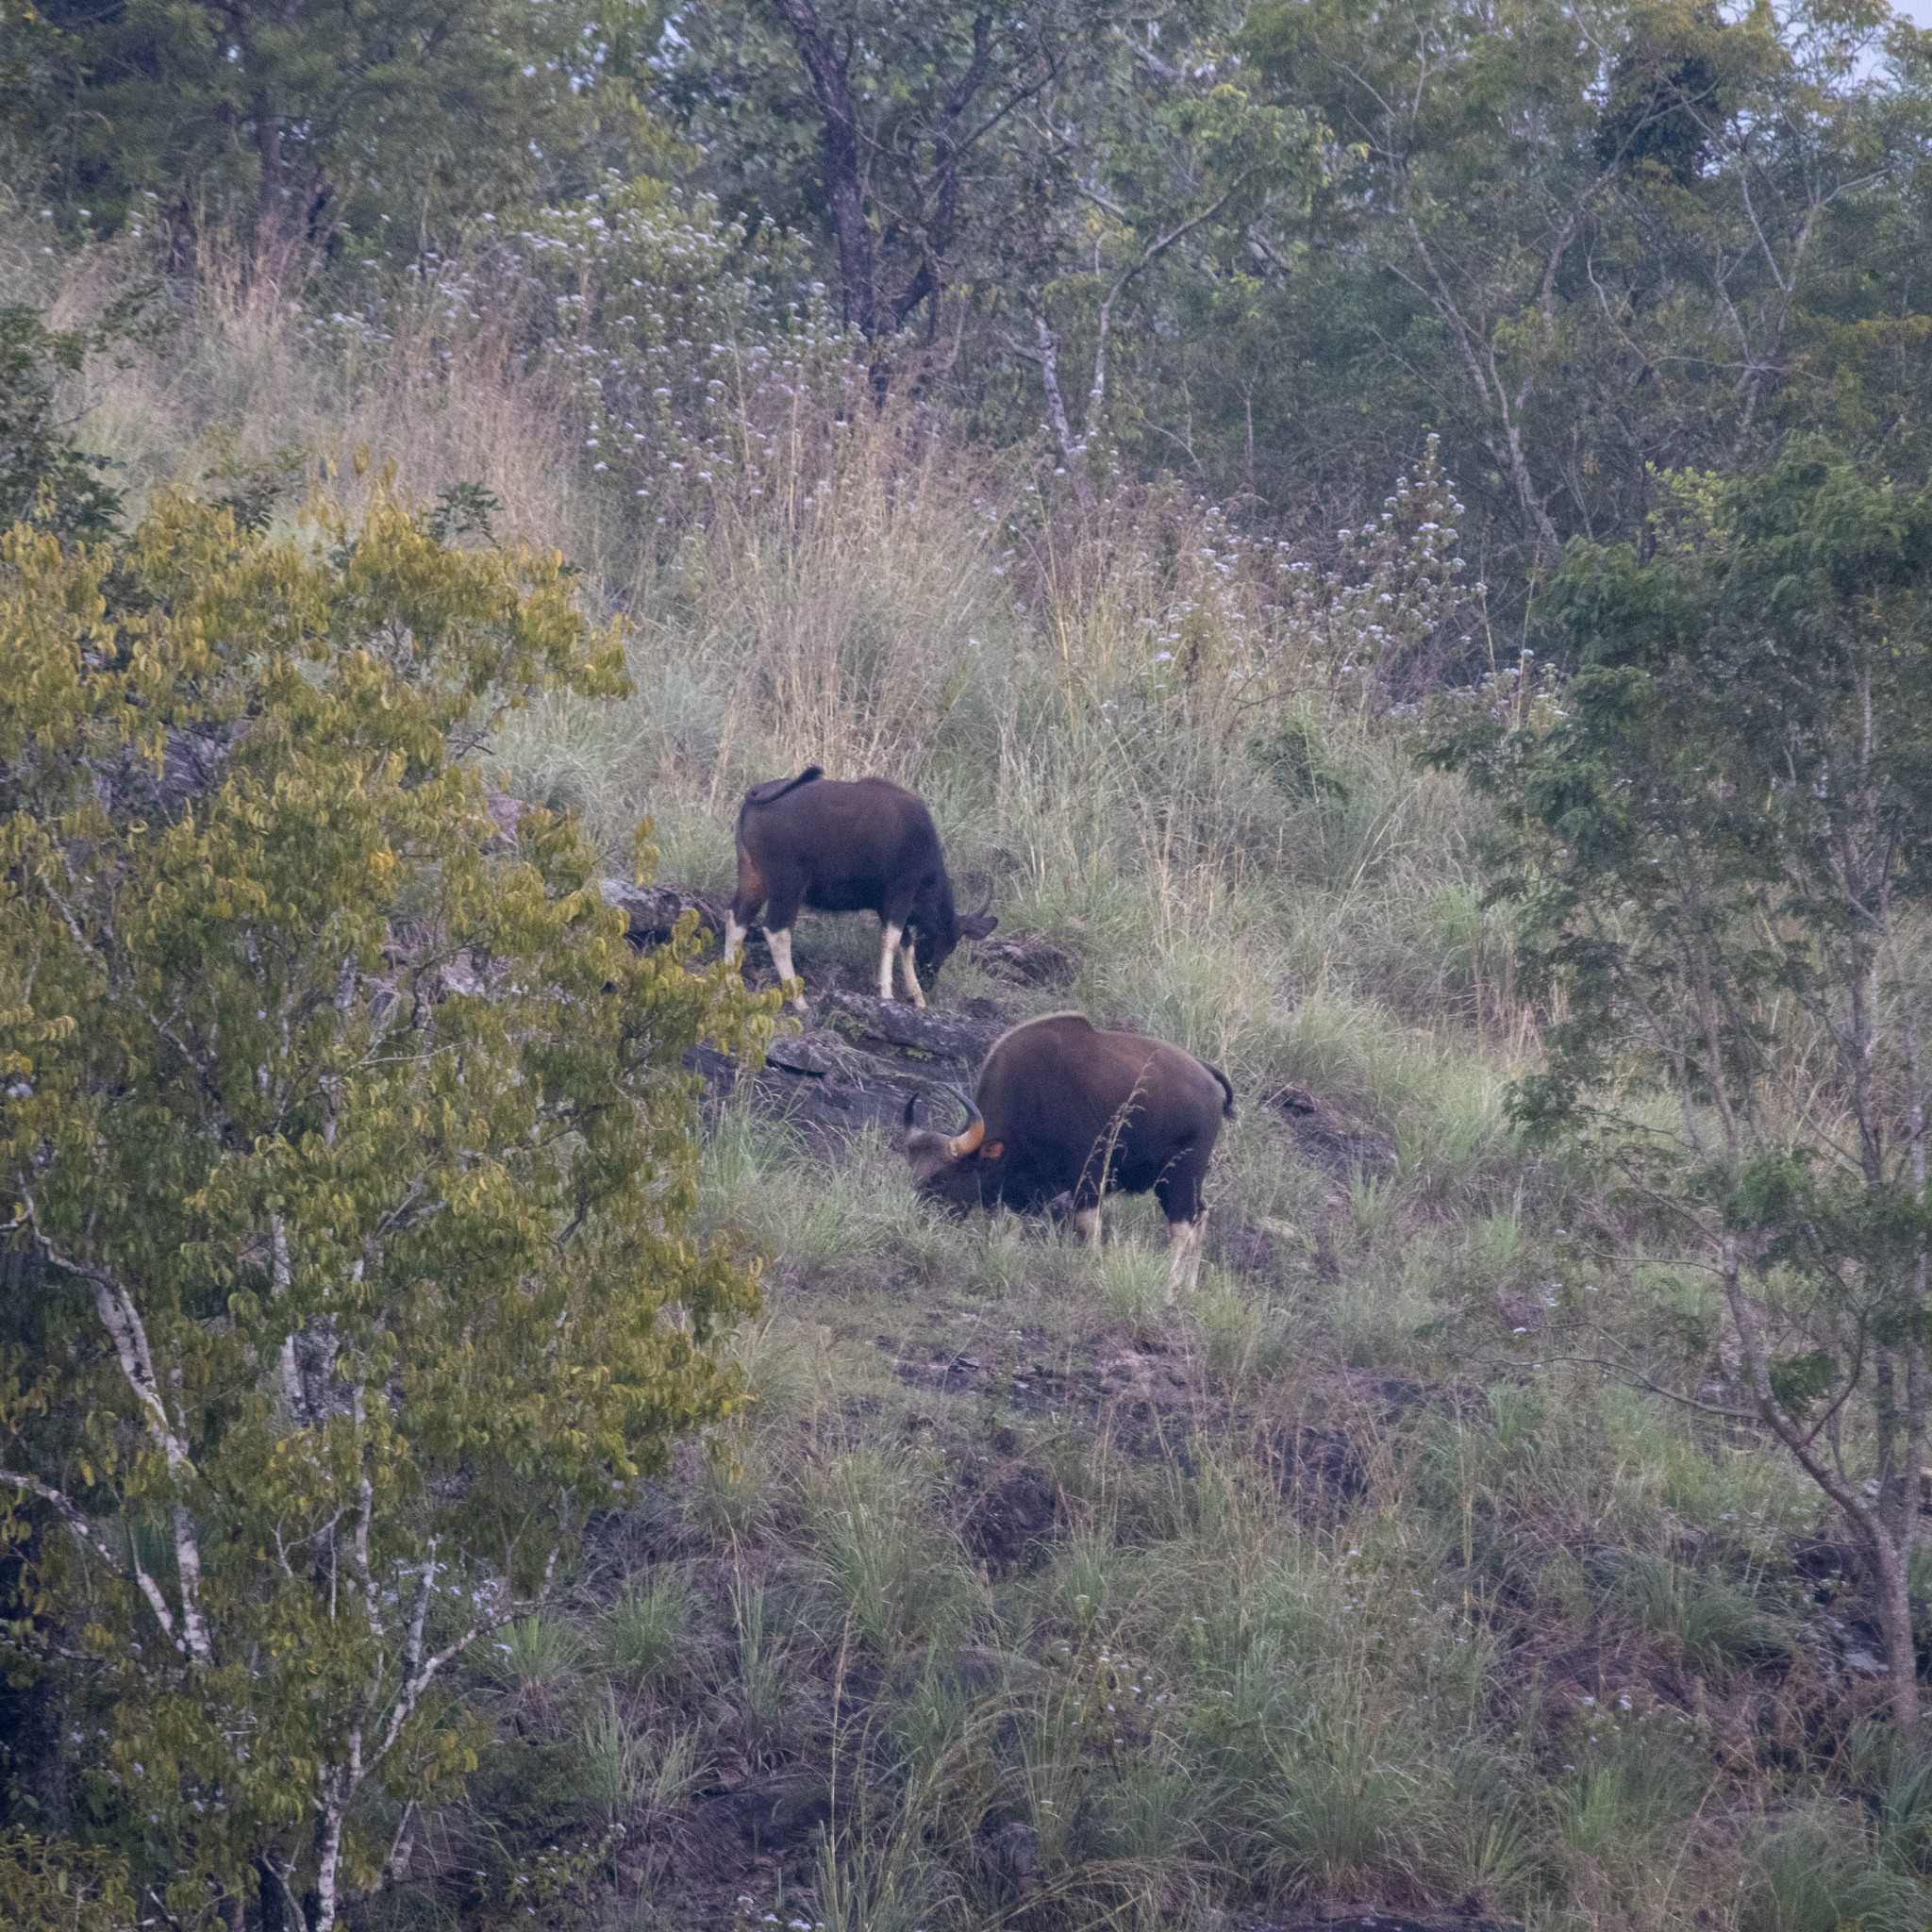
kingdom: Animalia
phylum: Chordata
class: Mammalia
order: Artiodactyla
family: Bovidae
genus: Bos
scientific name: Bos frontalis
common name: Gaur
